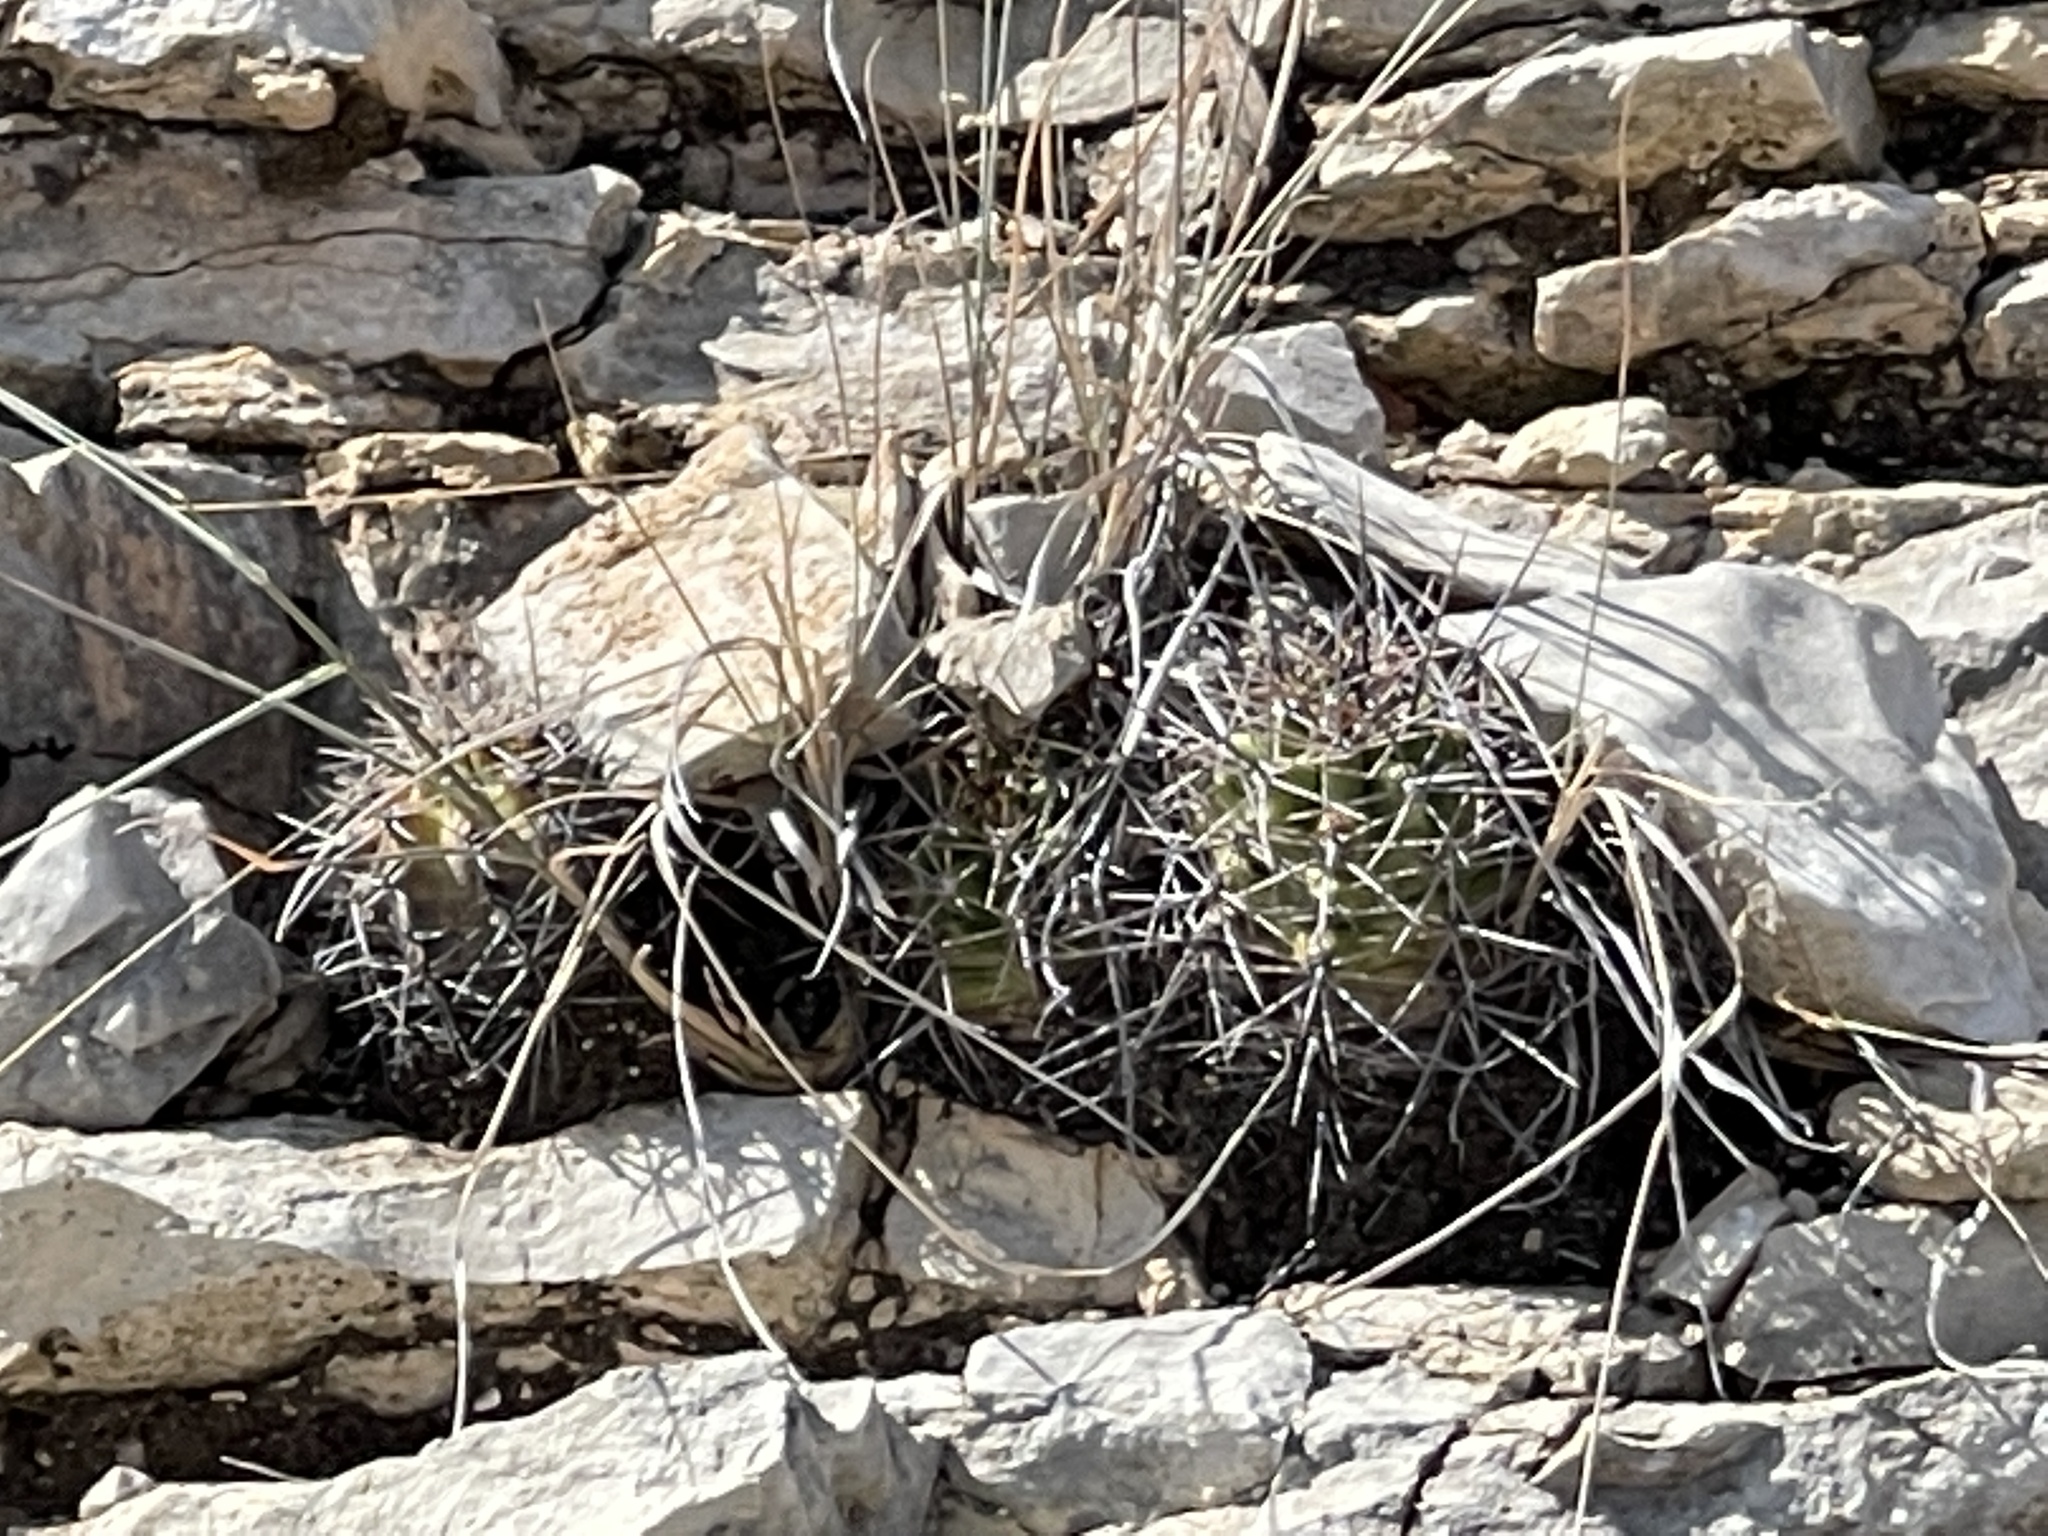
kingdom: Plantae
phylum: Tracheophyta
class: Magnoliopsida
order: Caryophyllales
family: Cactaceae
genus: Echinocereus
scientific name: Echinocereus coccineus
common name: Scarlet hedgehog cactus
